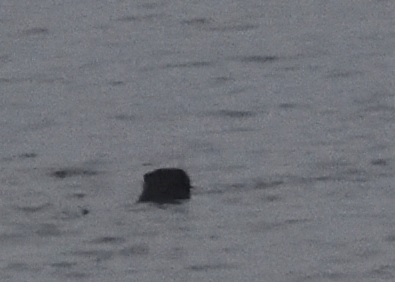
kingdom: Animalia
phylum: Chordata
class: Mammalia
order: Carnivora
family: Mustelidae
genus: Lontra
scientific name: Lontra canadensis
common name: North american river otter
